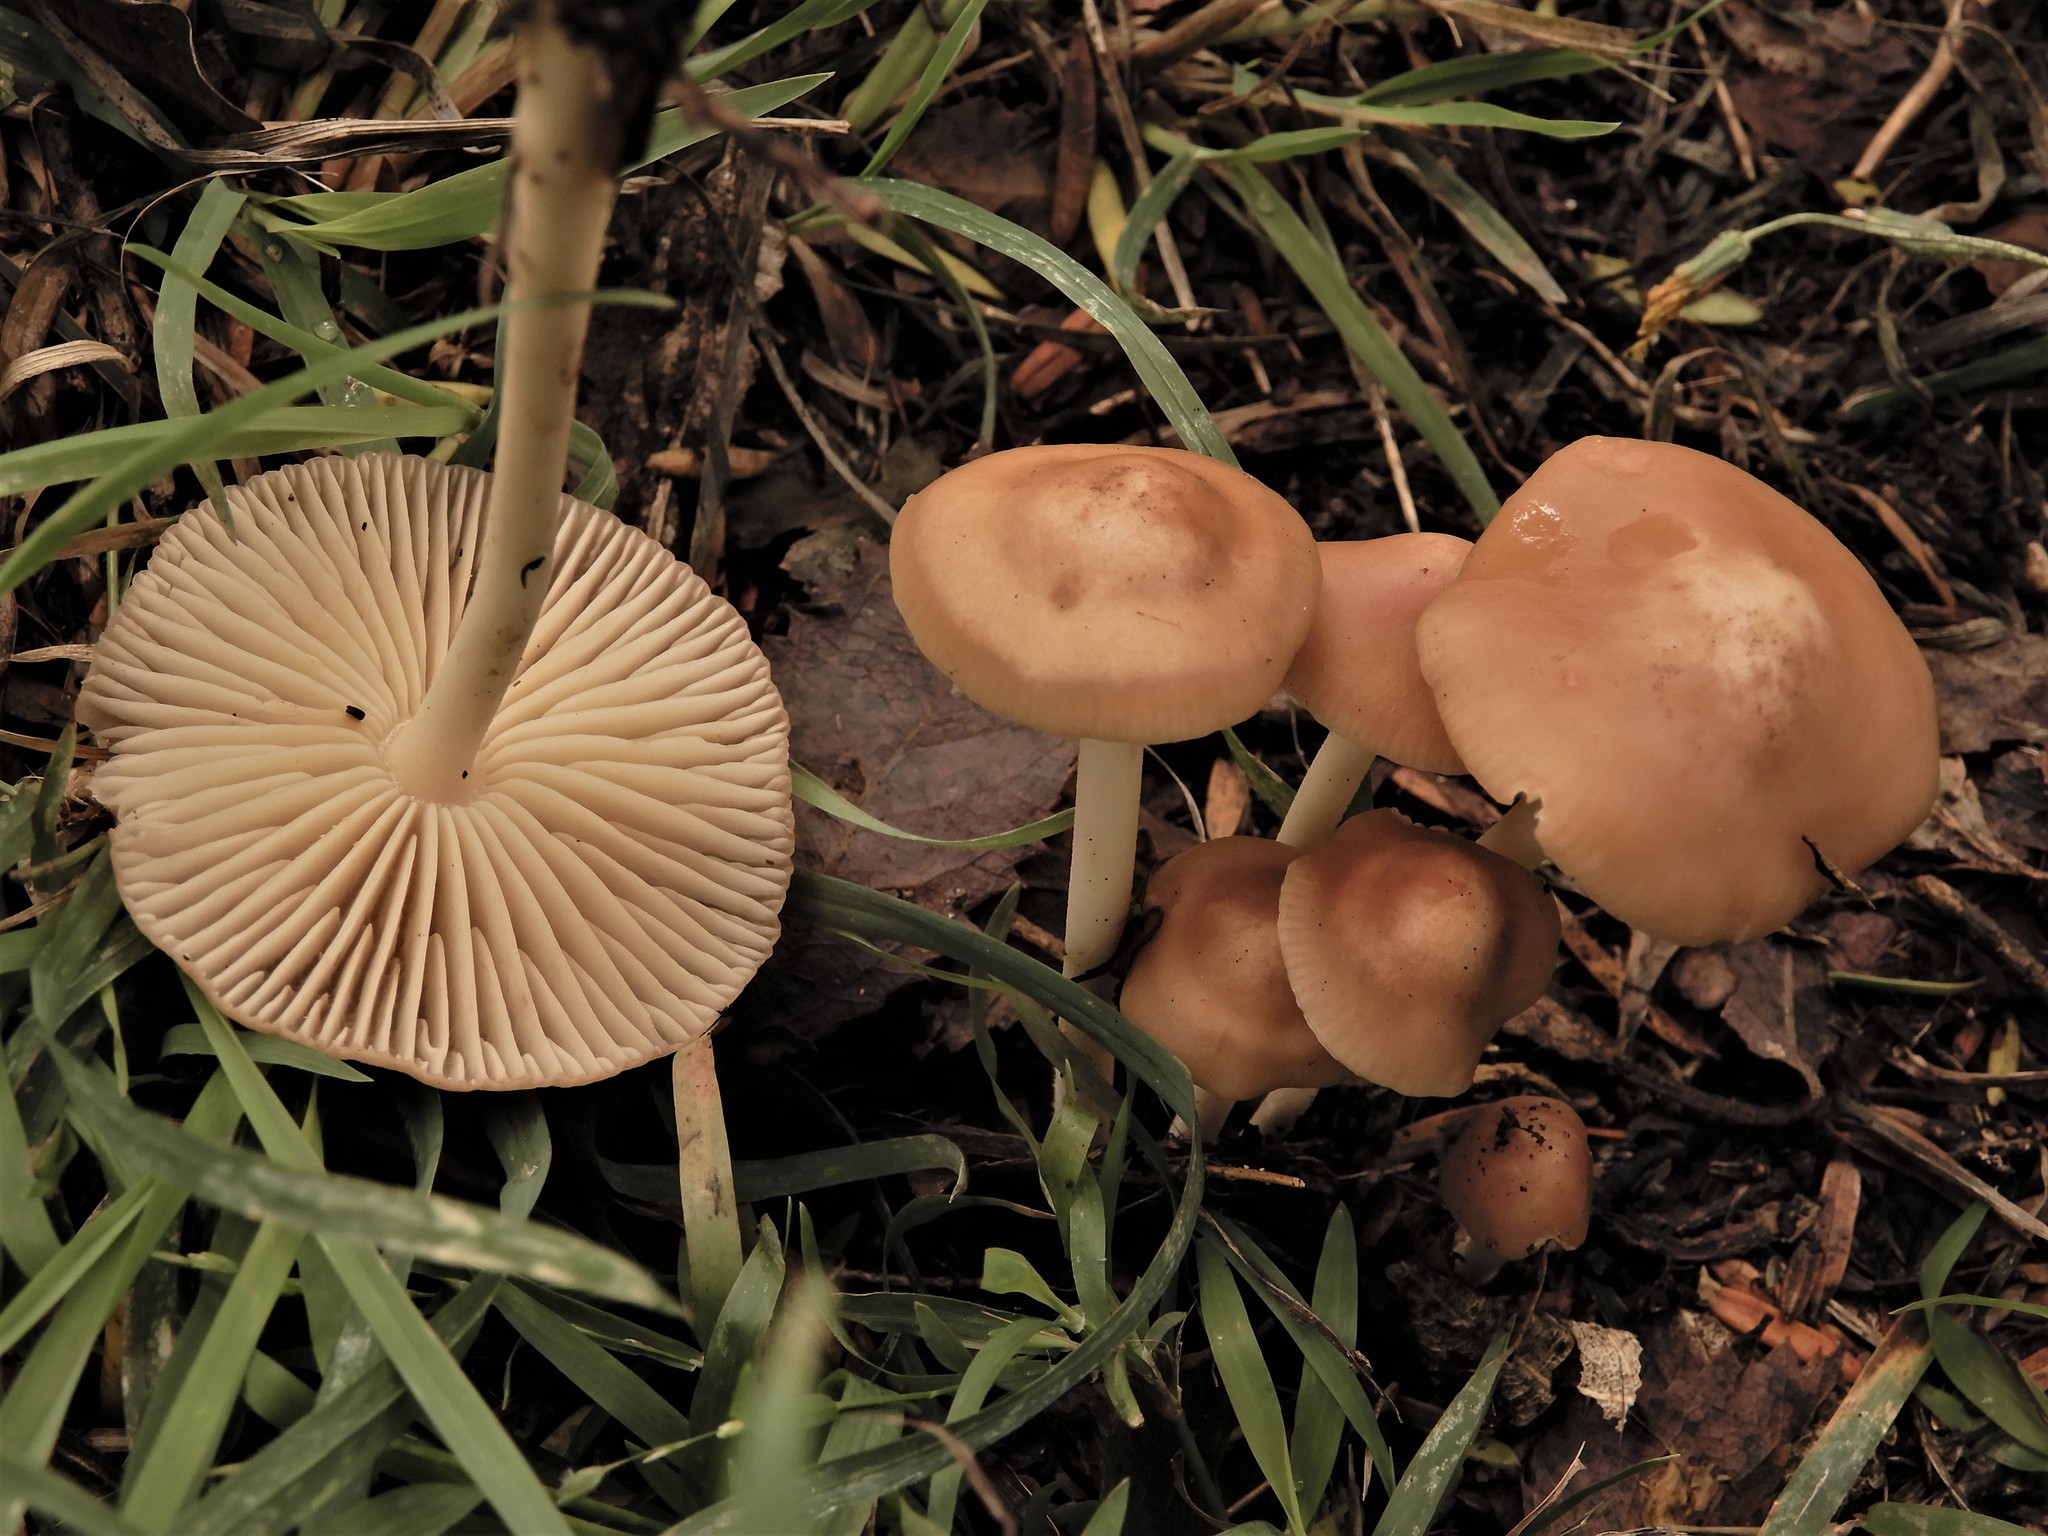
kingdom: Fungi
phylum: Basidiomycota
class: Agaricomycetes
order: Agaricales
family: Marasmiaceae
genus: Marasmius
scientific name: Marasmius oreades
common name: Fairy ring champignon
